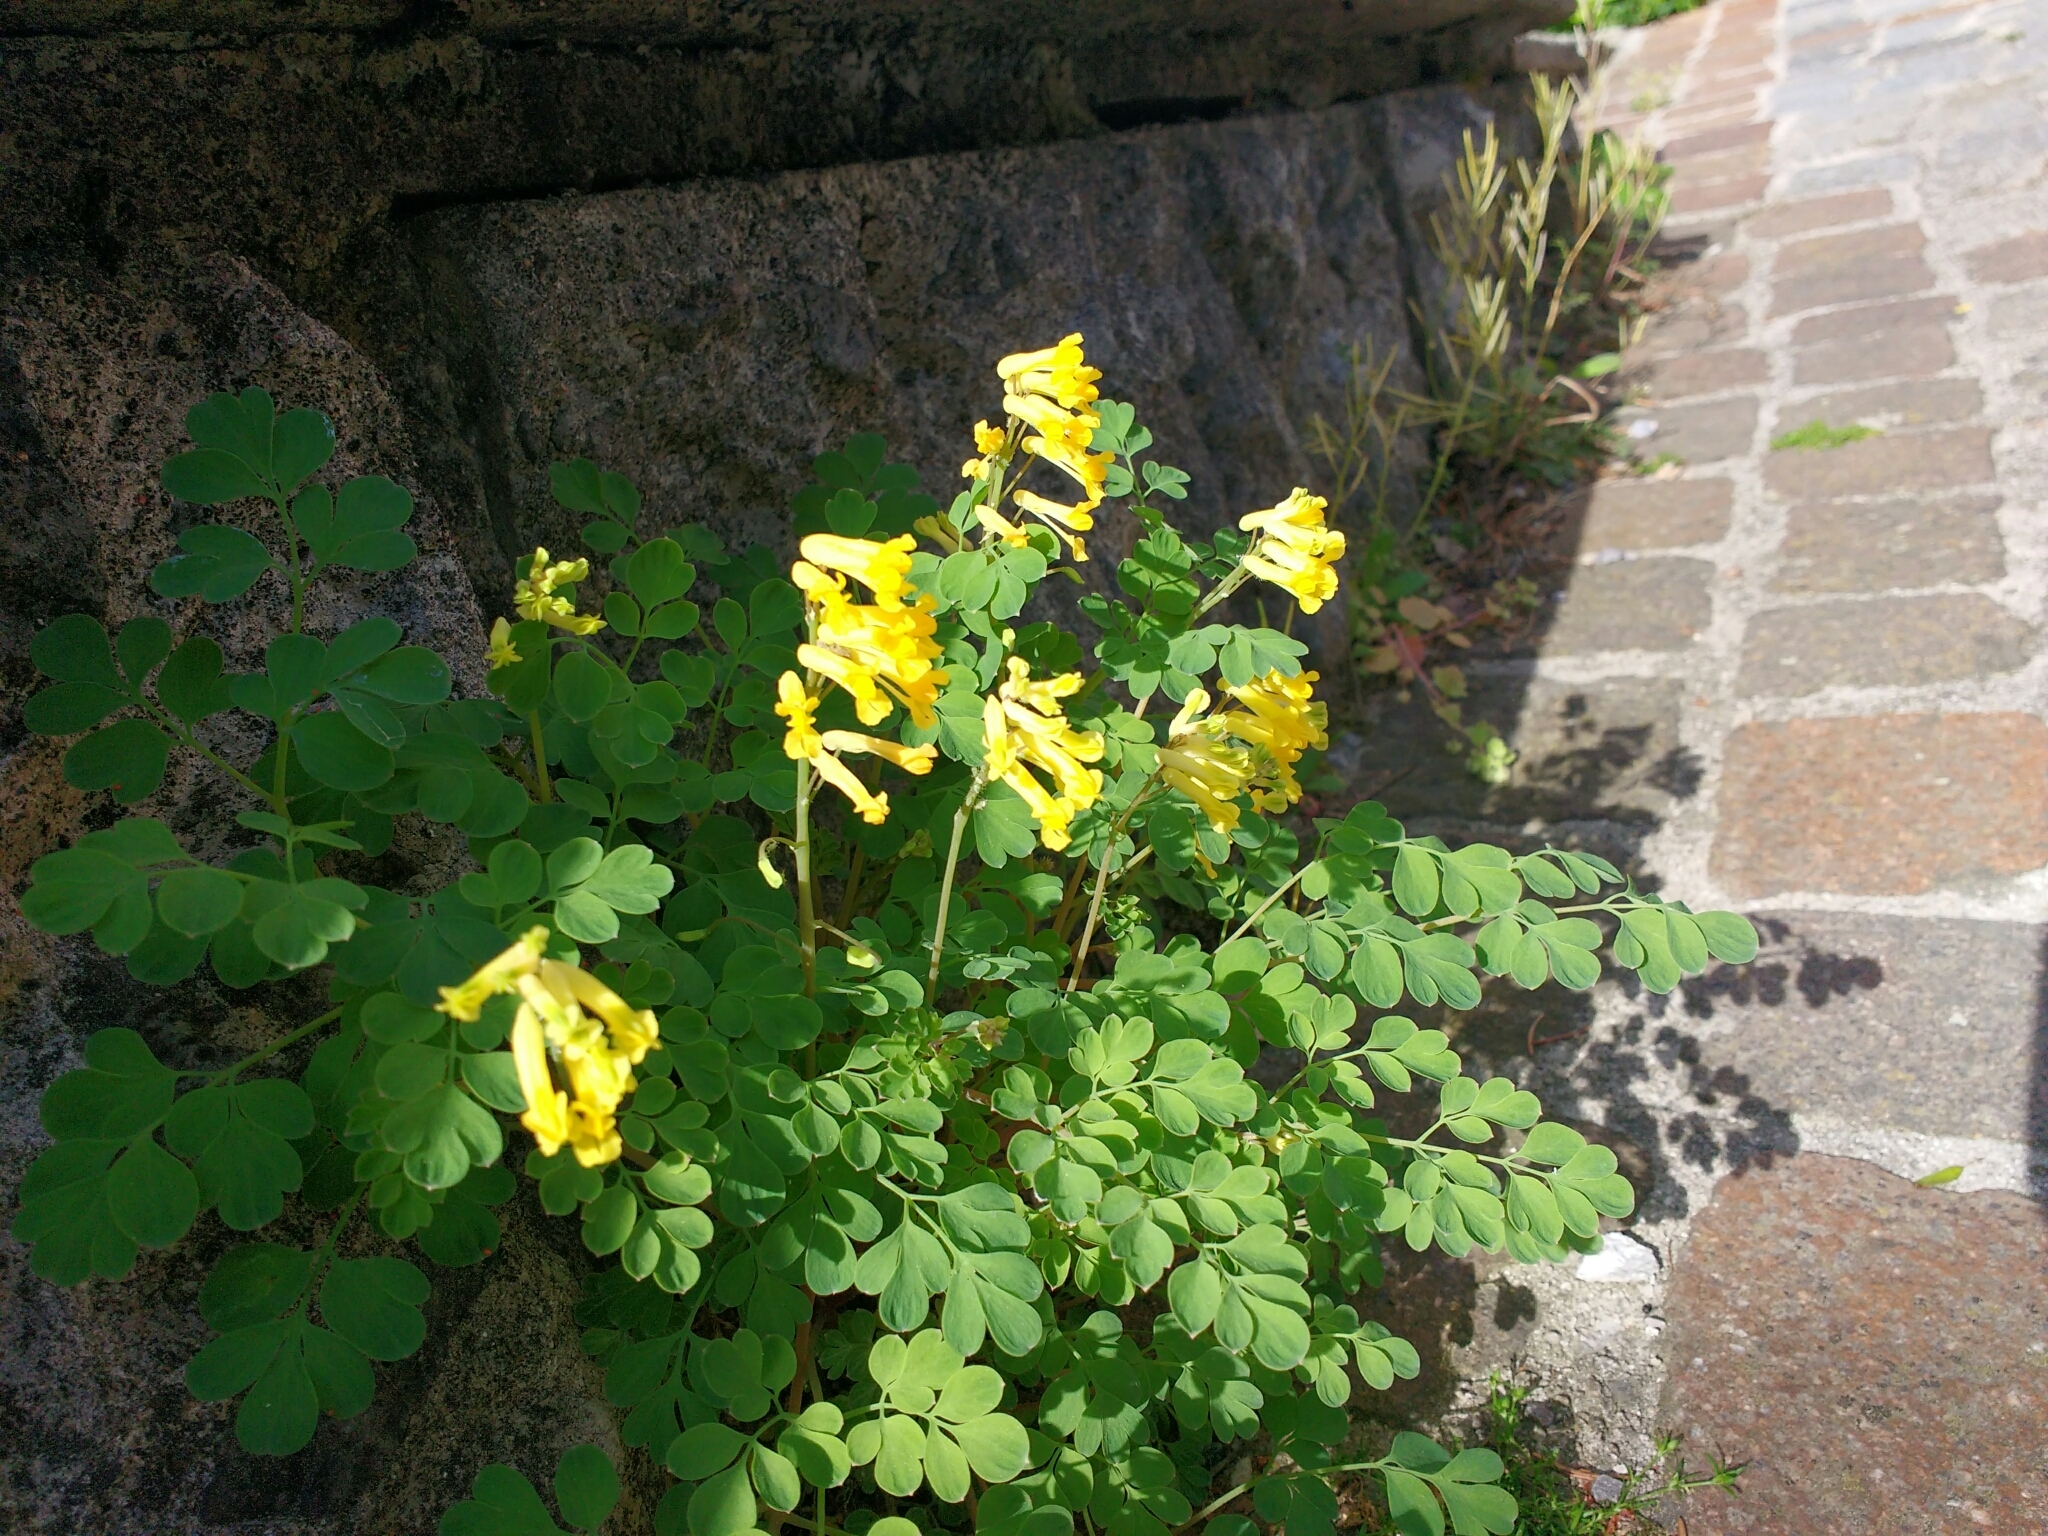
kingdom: Plantae
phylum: Tracheophyta
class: Magnoliopsida
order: Ranunculales
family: Papaveraceae
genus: Pseudofumaria
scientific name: Pseudofumaria lutea
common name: Yellow corydalis
